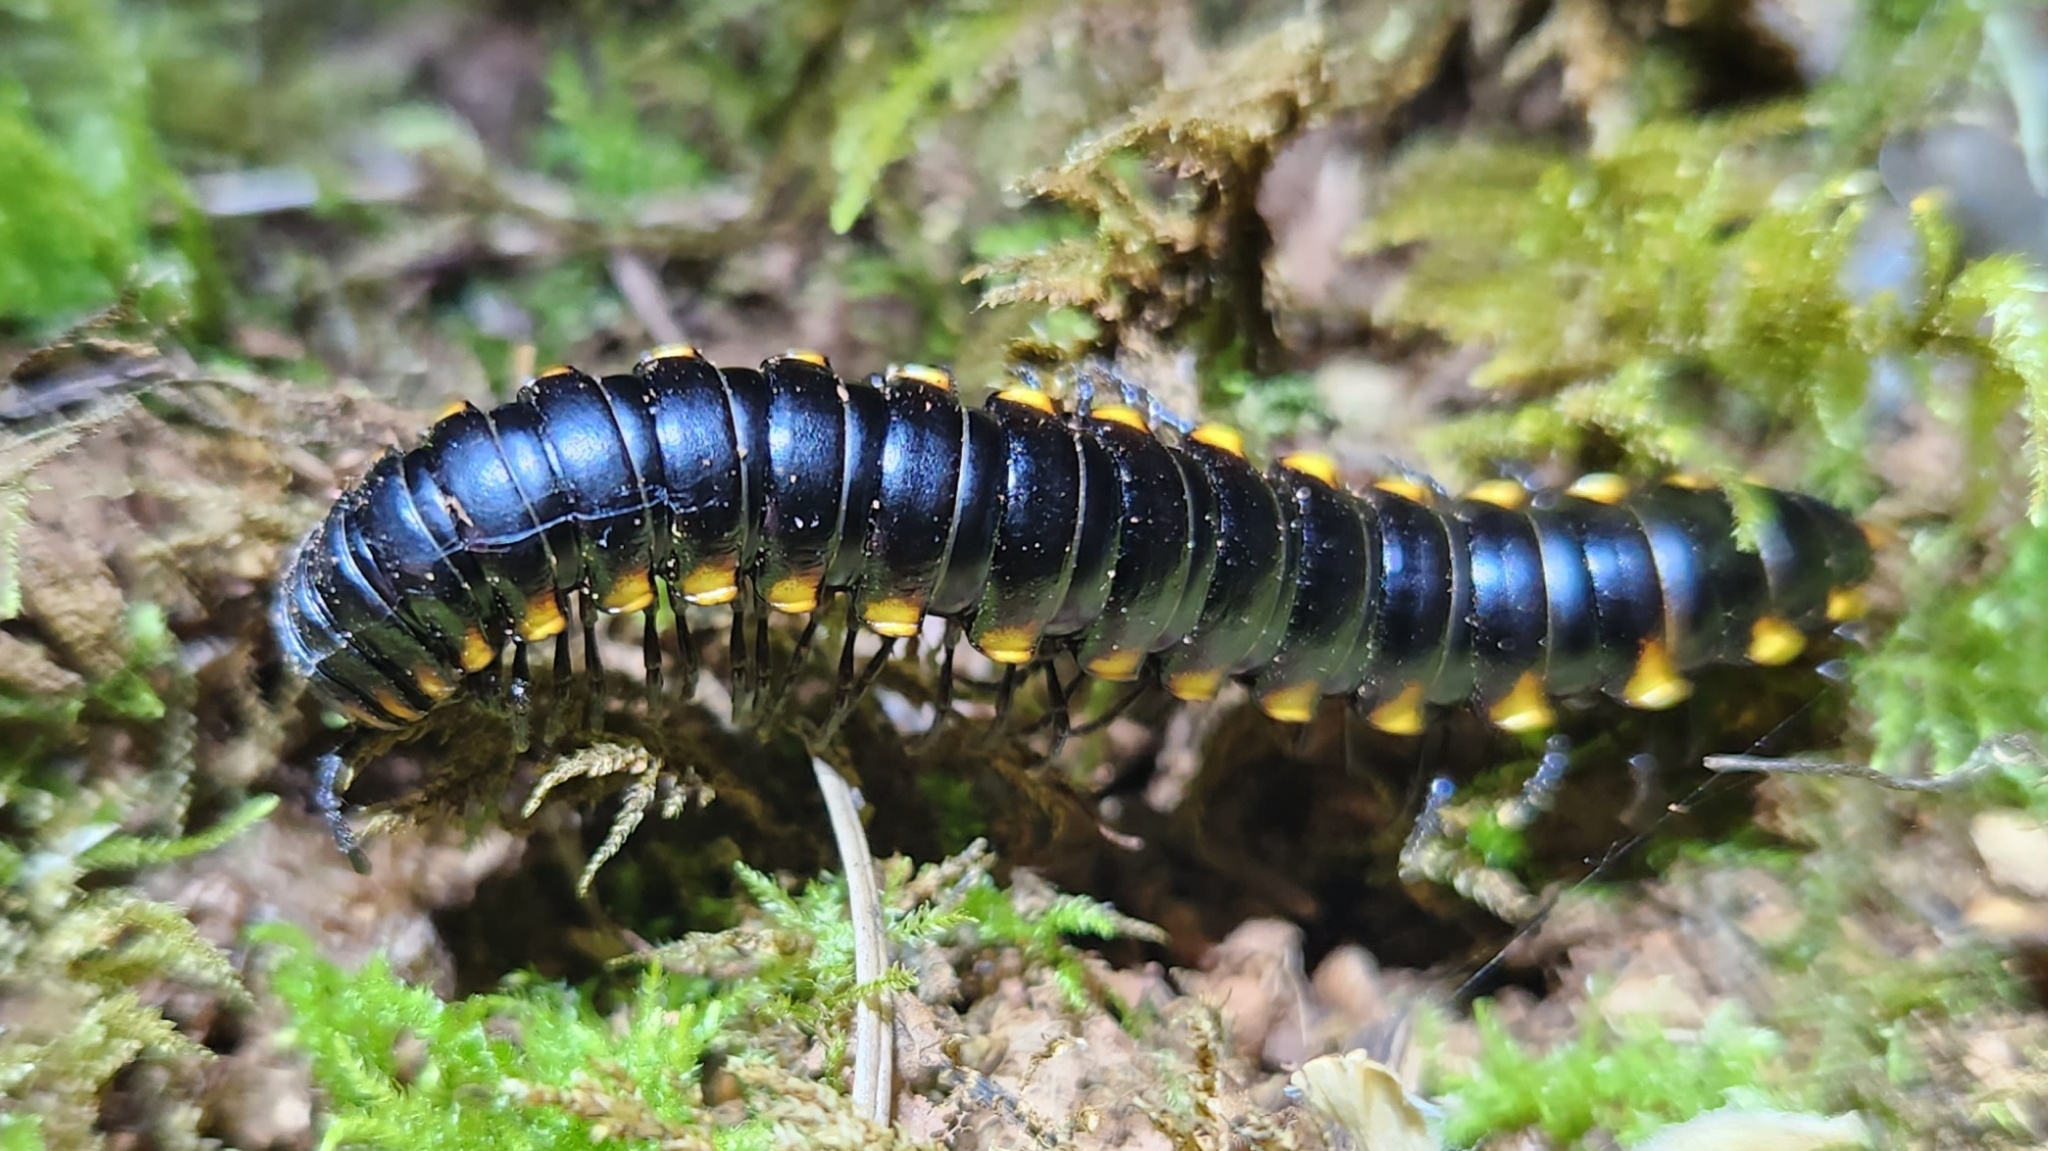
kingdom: Animalia
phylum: Arthropoda
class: Diplopoda
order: Polydesmida
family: Xystodesmidae
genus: Harpaphe
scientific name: Harpaphe haydeniana
